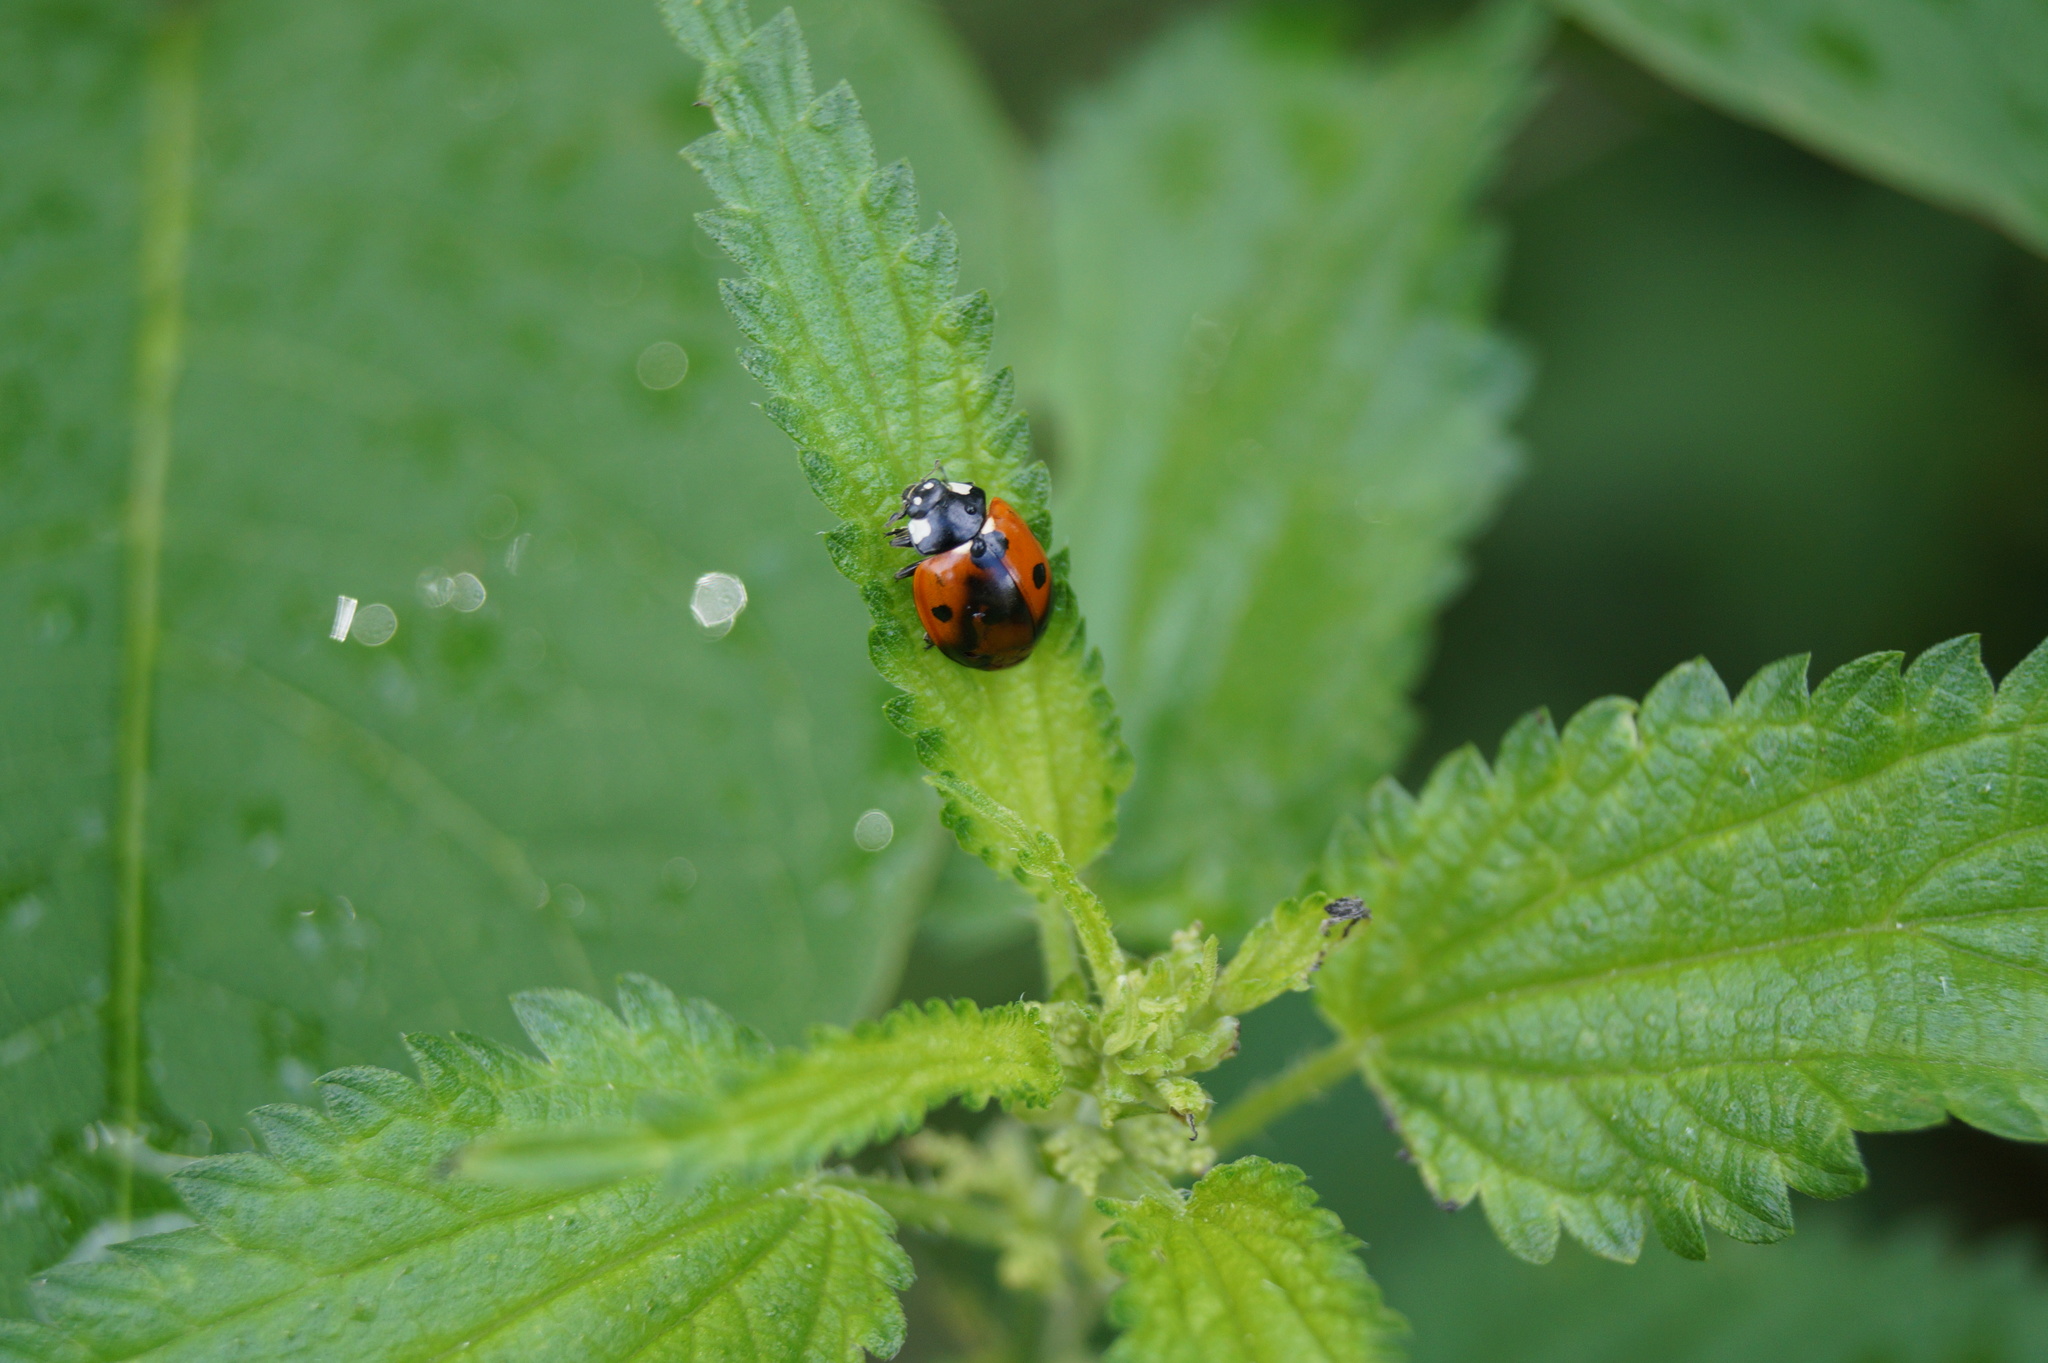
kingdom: Animalia
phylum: Arthropoda
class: Insecta
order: Coleoptera
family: Coccinellidae
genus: Coccinella
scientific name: Coccinella septempunctata
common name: Sevenspotted lady beetle
